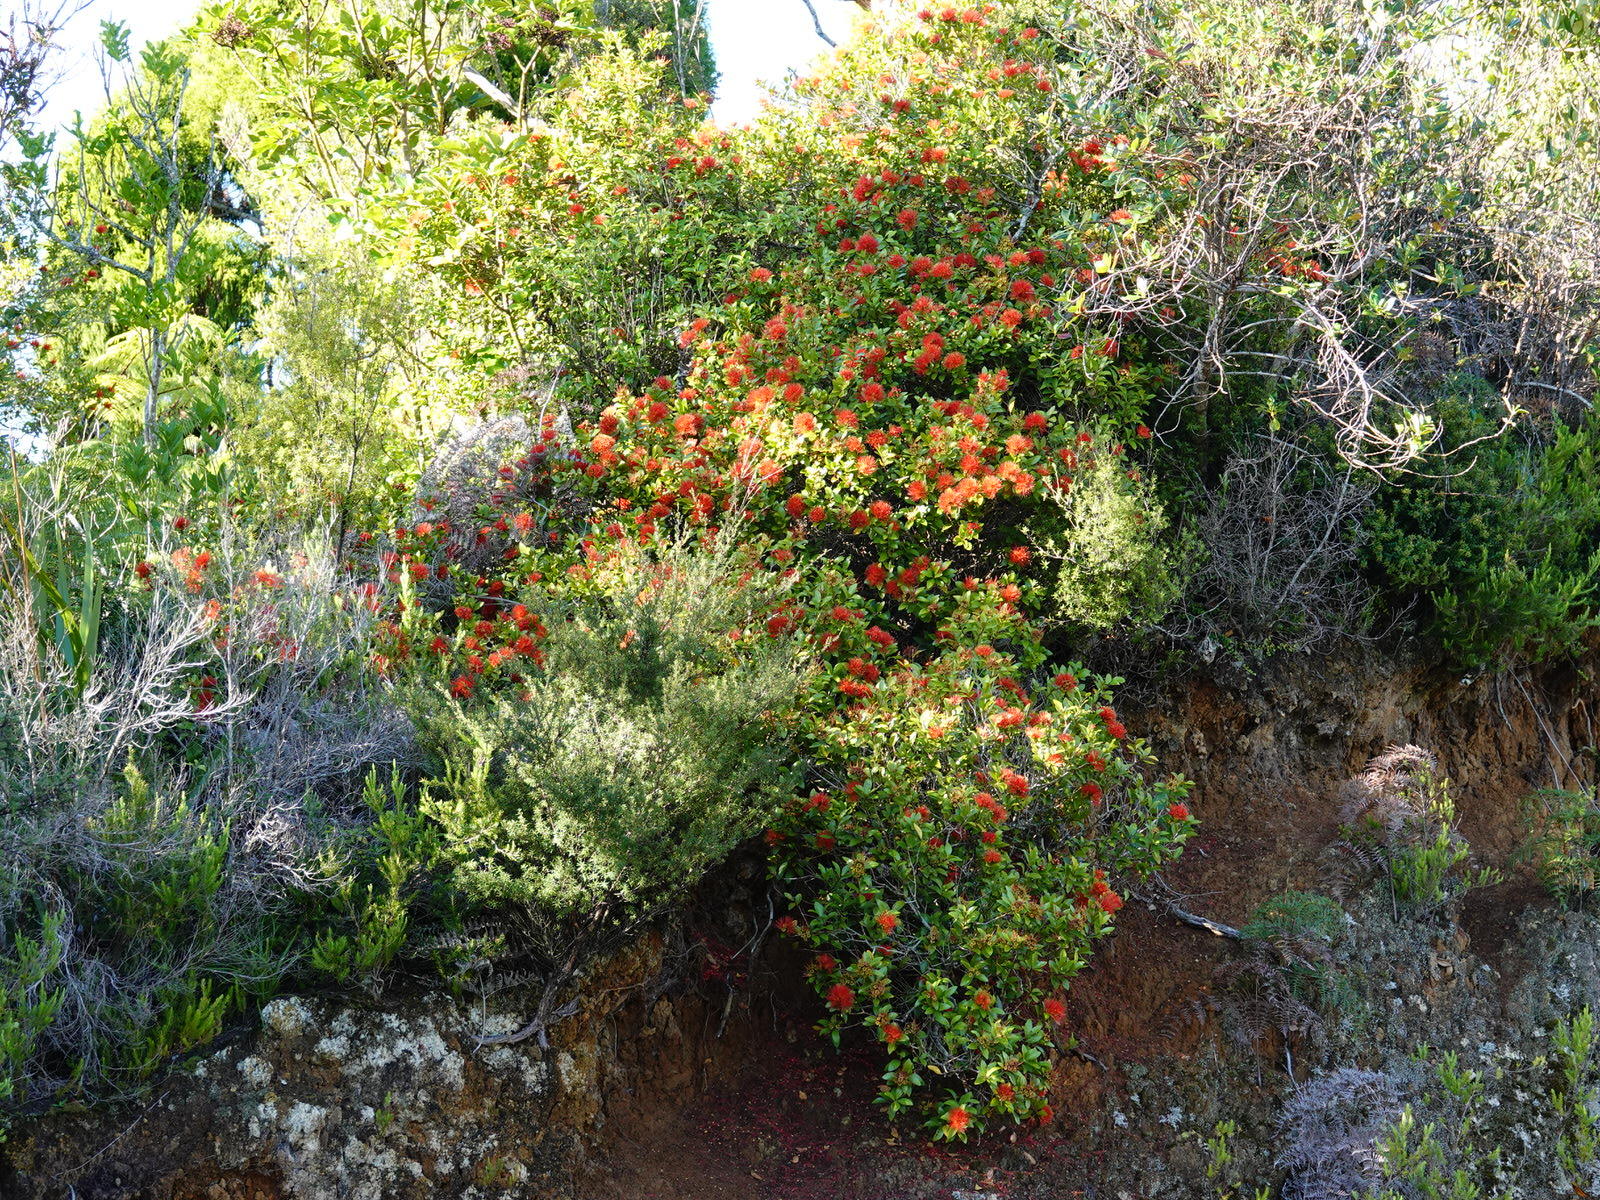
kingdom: Plantae
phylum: Tracheophyta
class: Magnoliopsida
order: Myrtales
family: Myrtaceae
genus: Metrosideros
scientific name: Metrosideros fulgens
